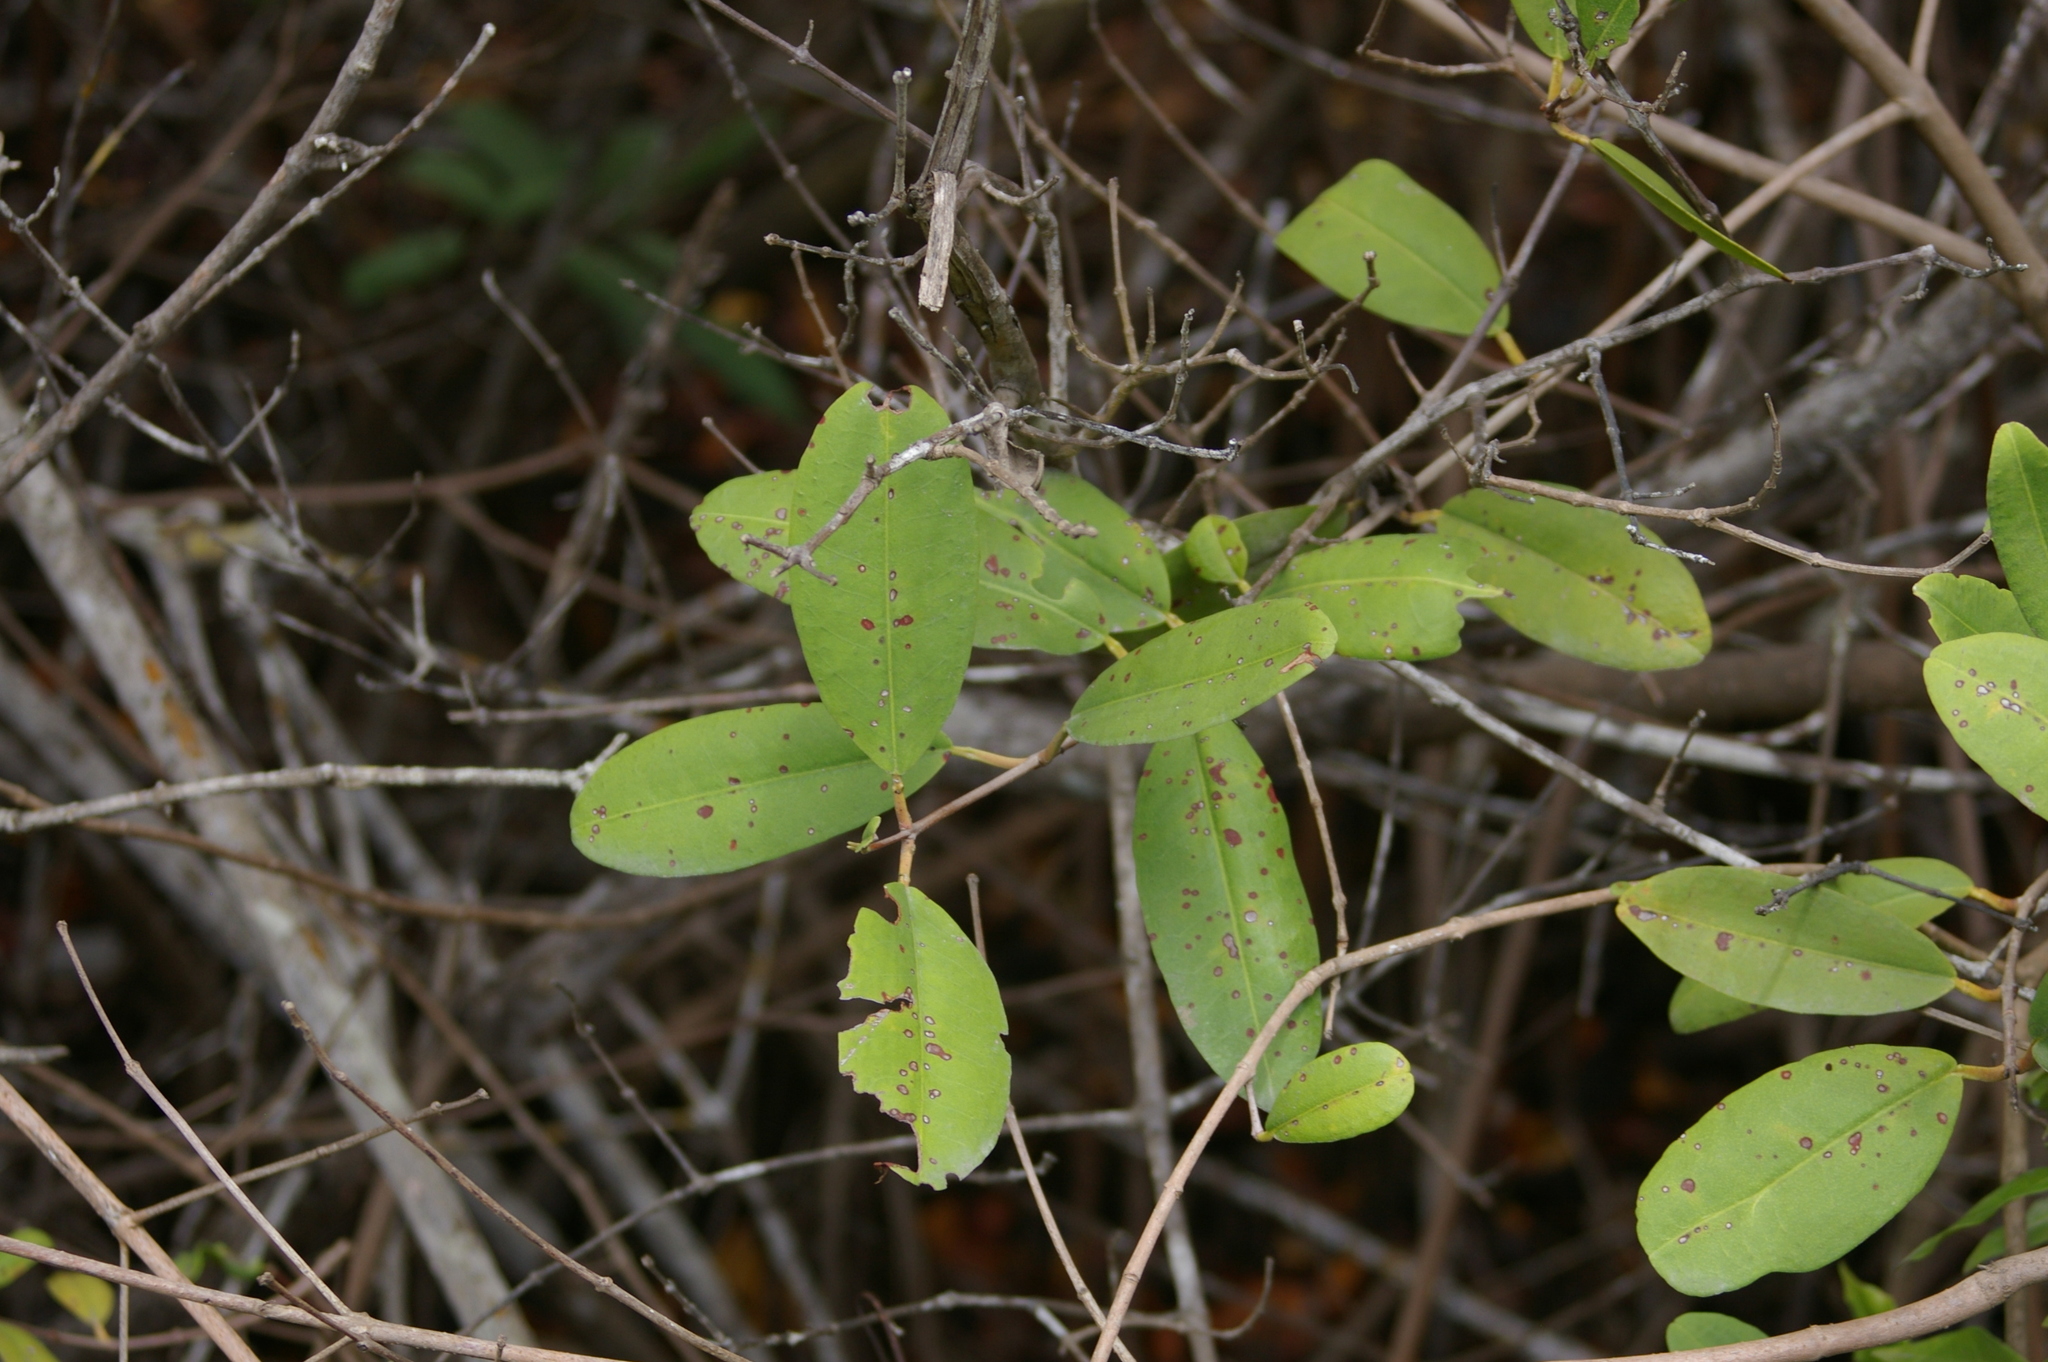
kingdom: Plantae
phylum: Tracheophyta
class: Magnoliopsida
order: Myrtales
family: Combretaceae
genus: Laguncularia
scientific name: Laguncularia racemosa
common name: White mangrove
